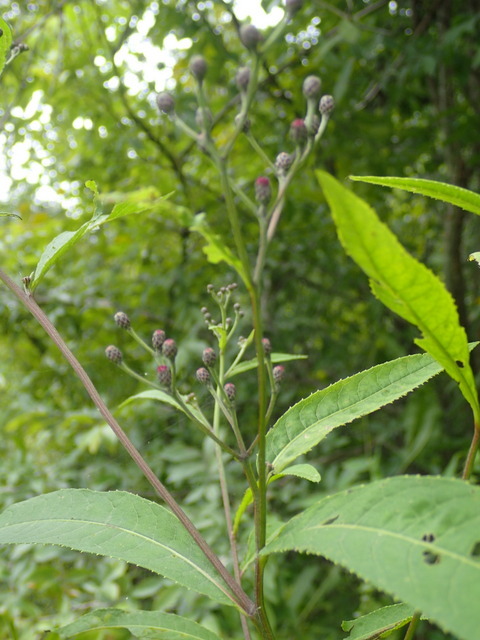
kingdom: Plantae
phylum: Tracheophyta
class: Magnoliopsida
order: Asterales
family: Asteraceae
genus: Vernonia
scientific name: Vernonia gigantea
